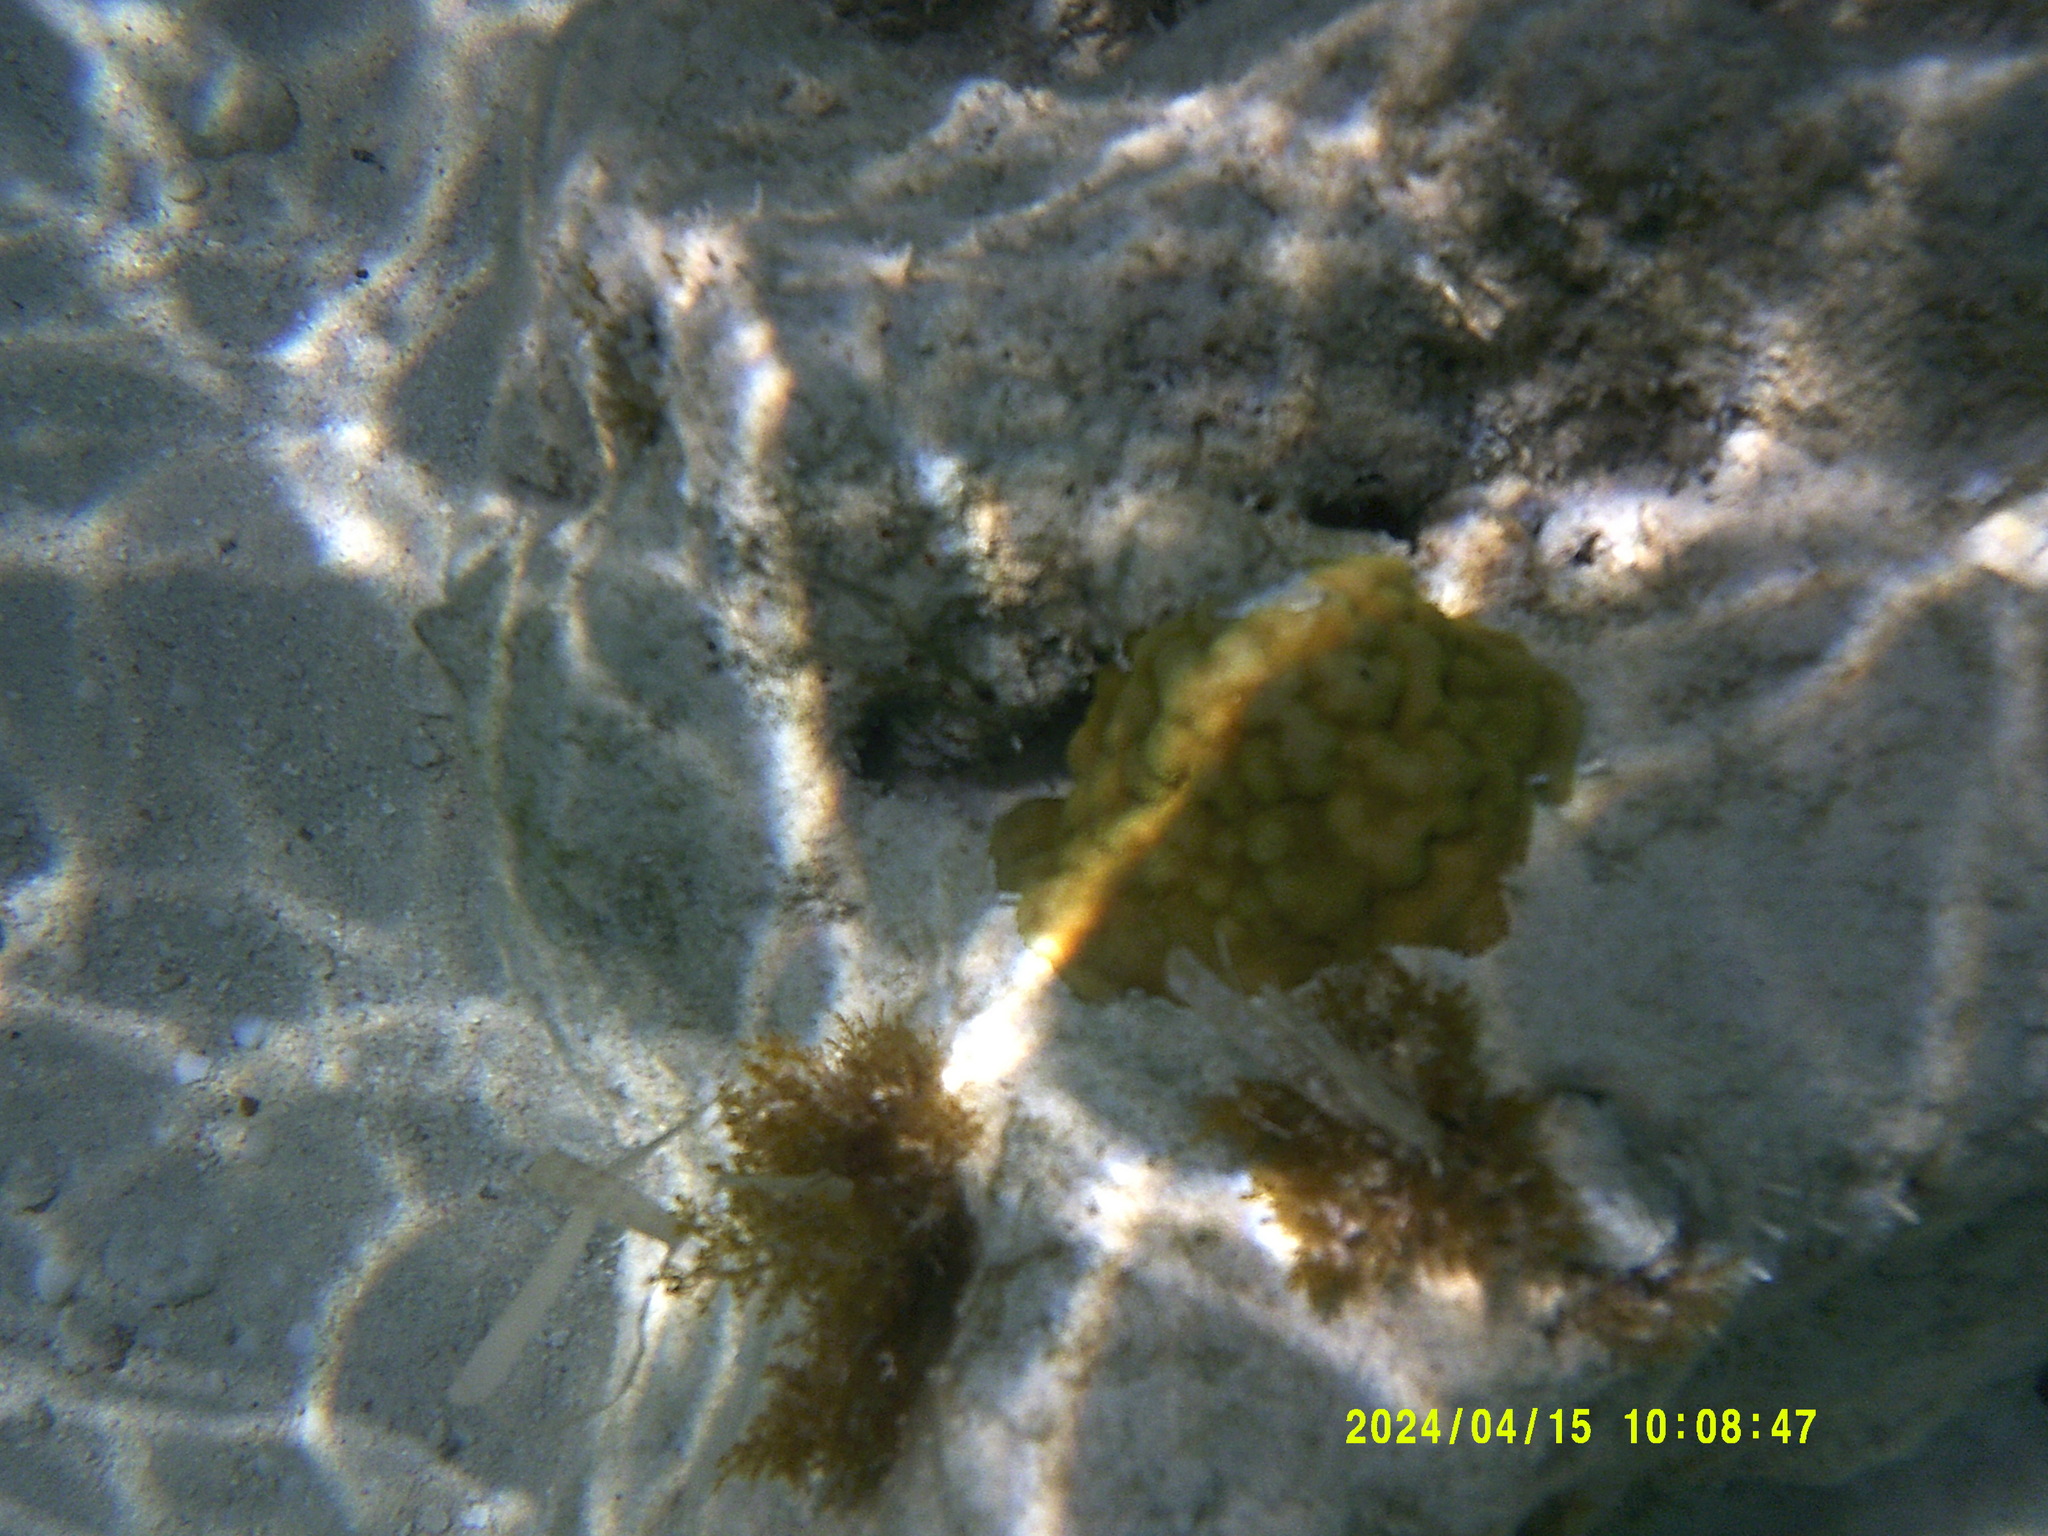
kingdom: Animalia
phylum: Cnidaria
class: Anthozoa
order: Scleractinia
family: Poritidae
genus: Porites
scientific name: Porites astreoides
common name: Mustard hill coral
